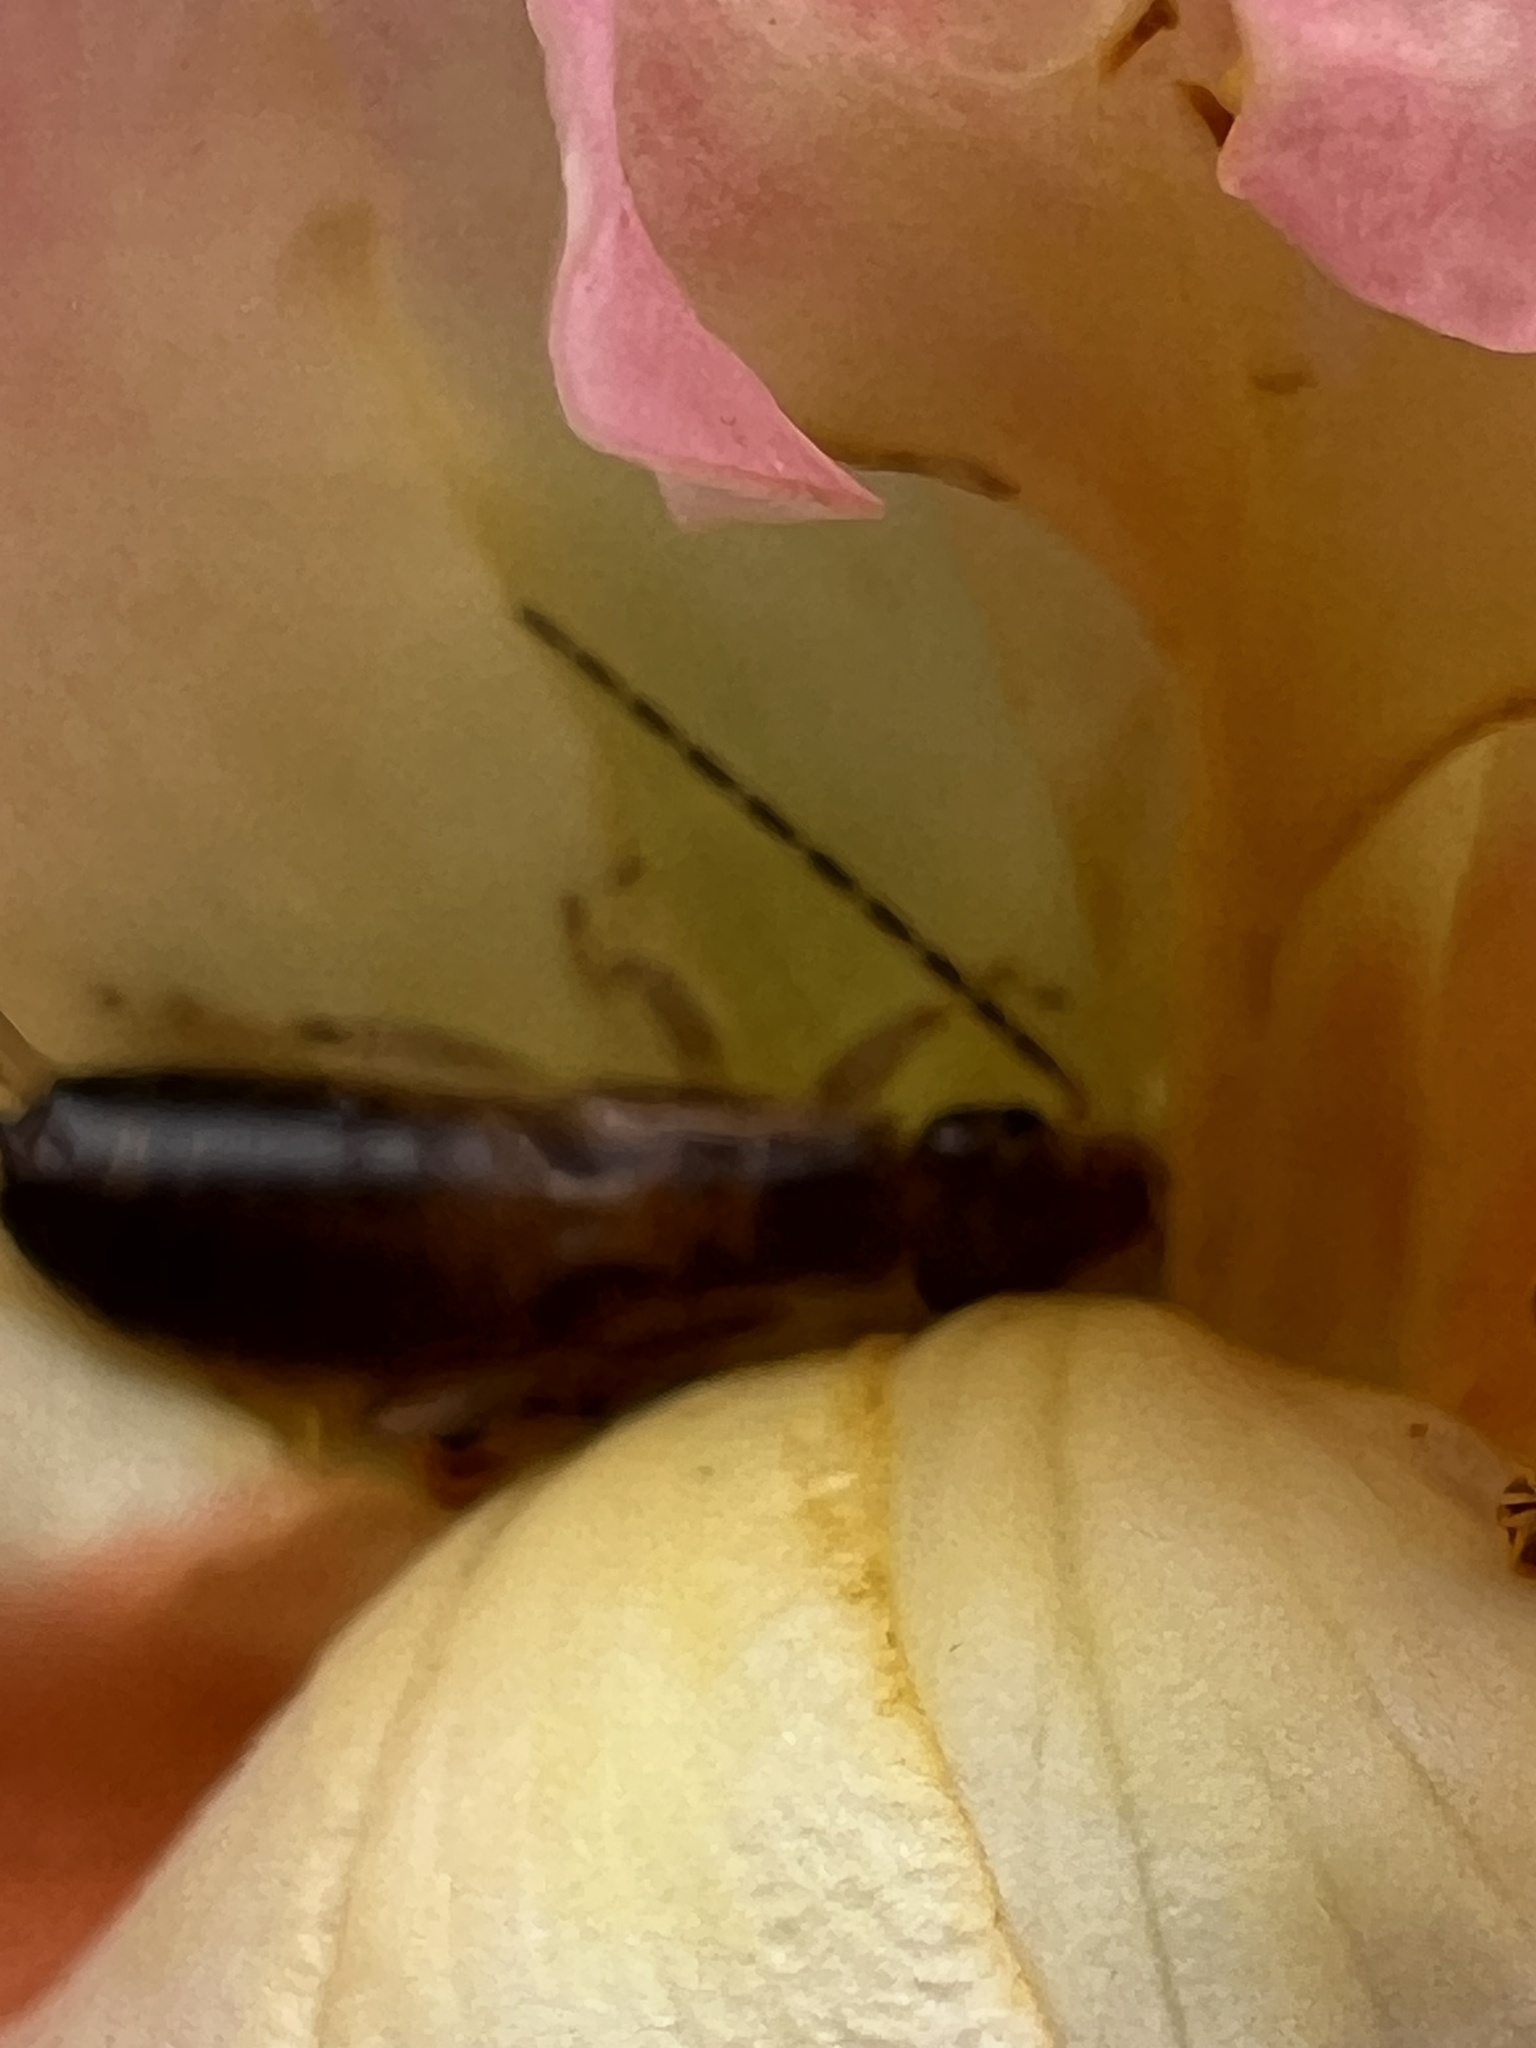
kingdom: Animalia
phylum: Arthropoda
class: Insecta
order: Dermaptera
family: Forficulidae
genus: Forficula
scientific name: Forficula
